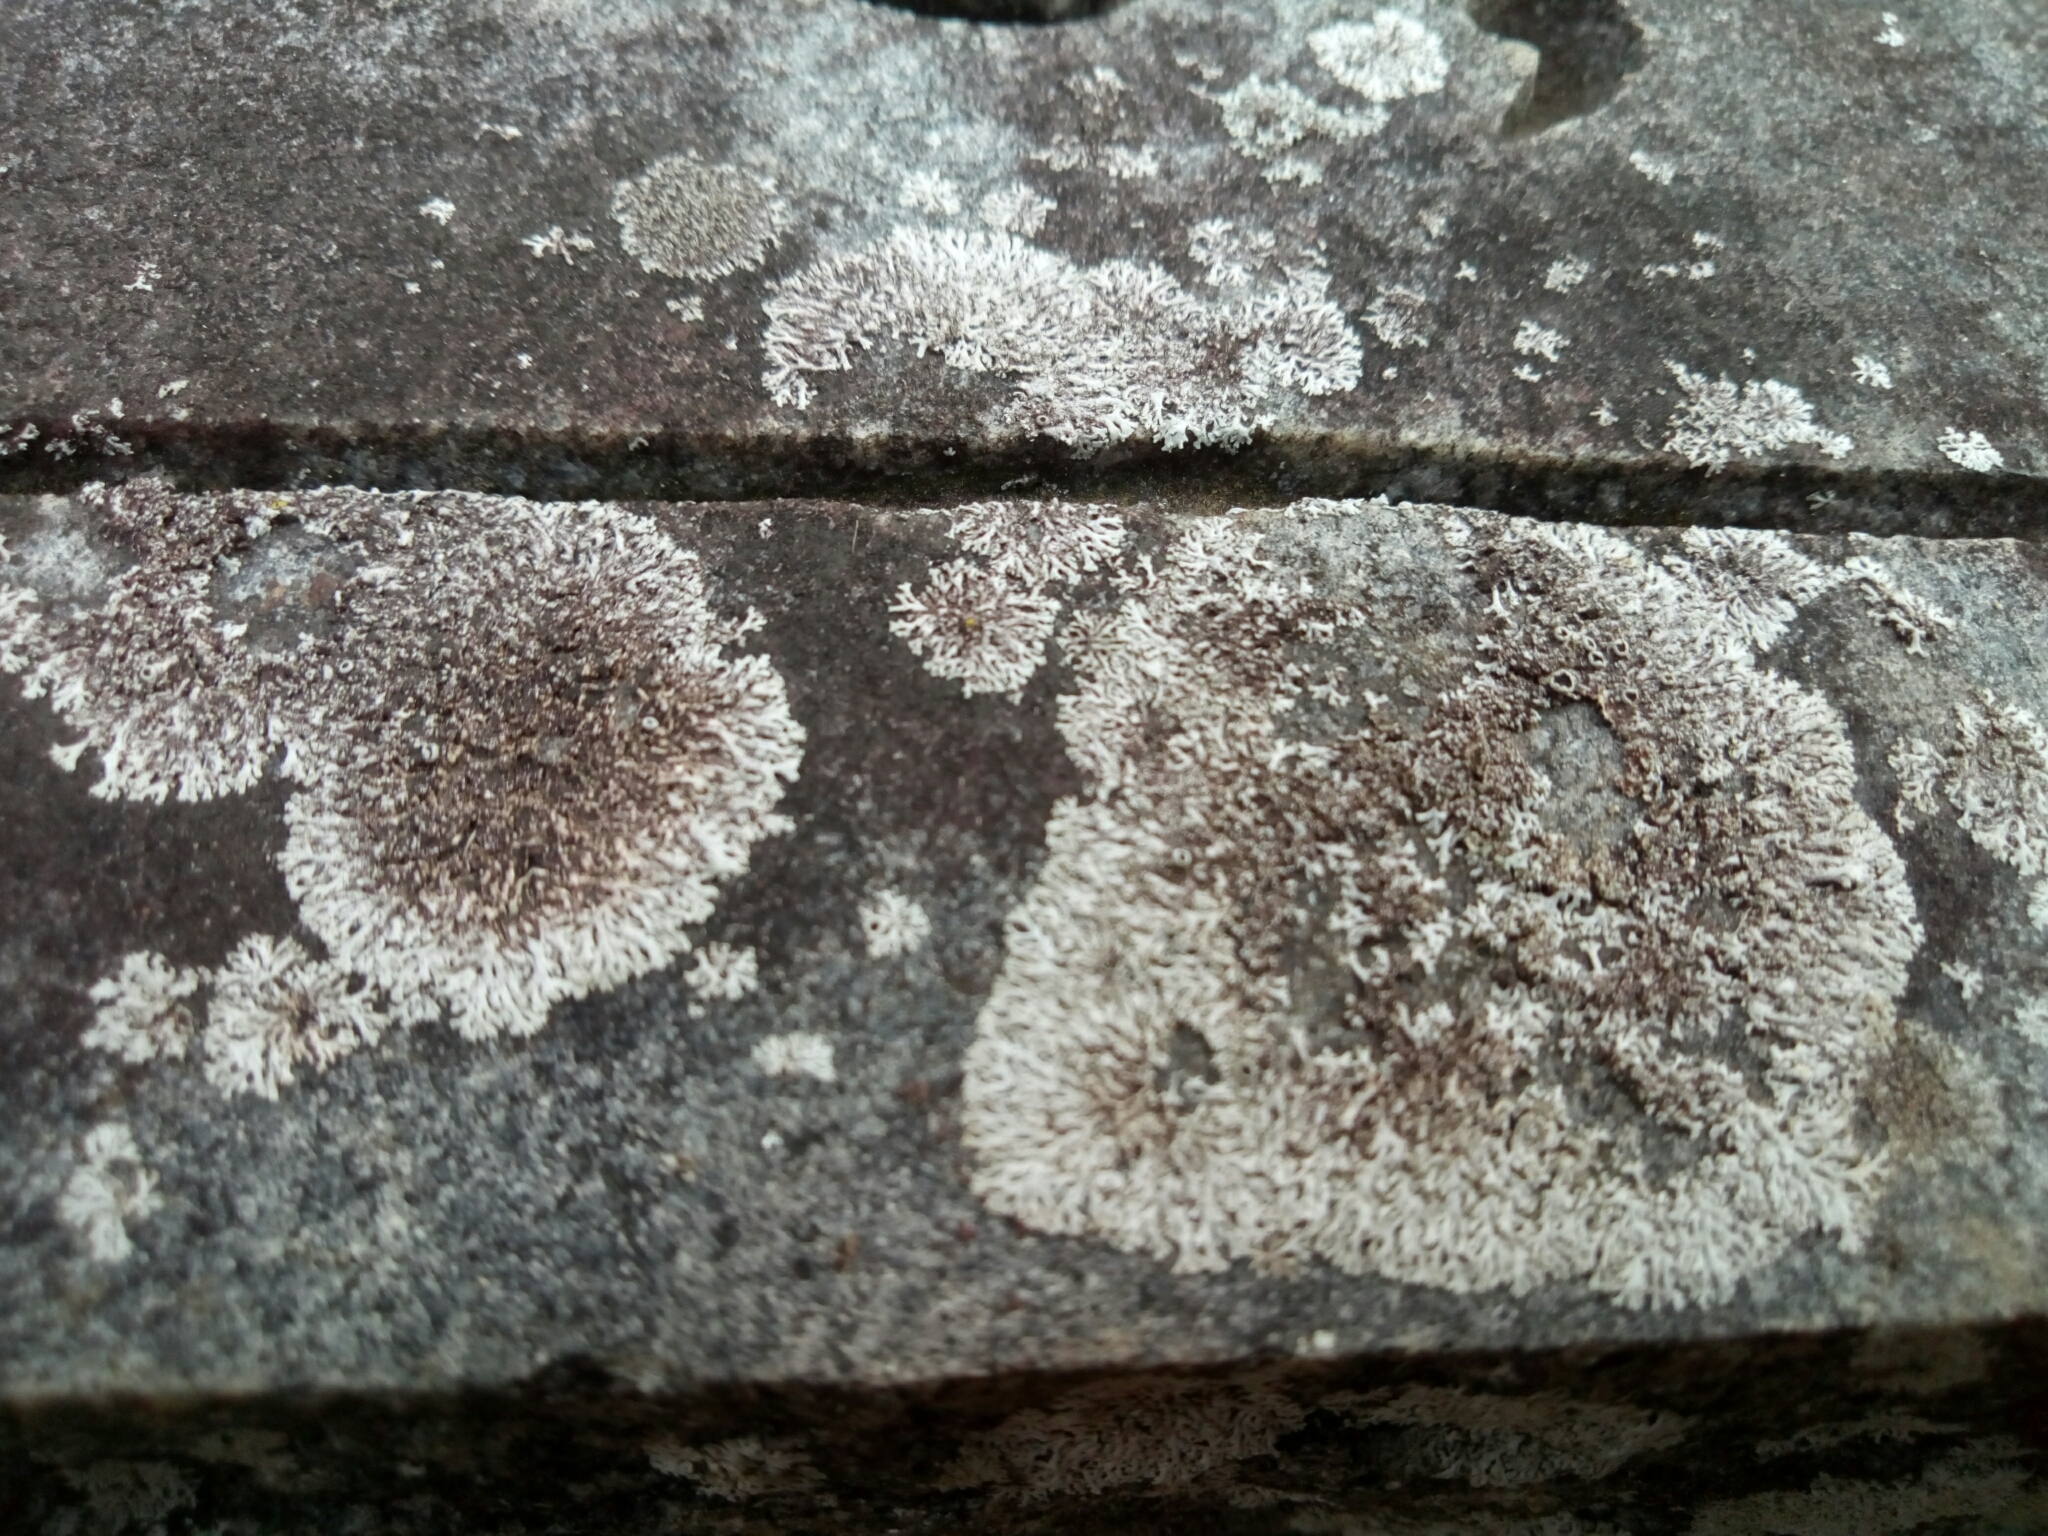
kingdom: Fungi
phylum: Ascomycota
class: Lecanoromycetes
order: Caliciales
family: Physciaceae
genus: Physcia
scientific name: Physcia thomsoniana
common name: Thomson's rosette lichen
